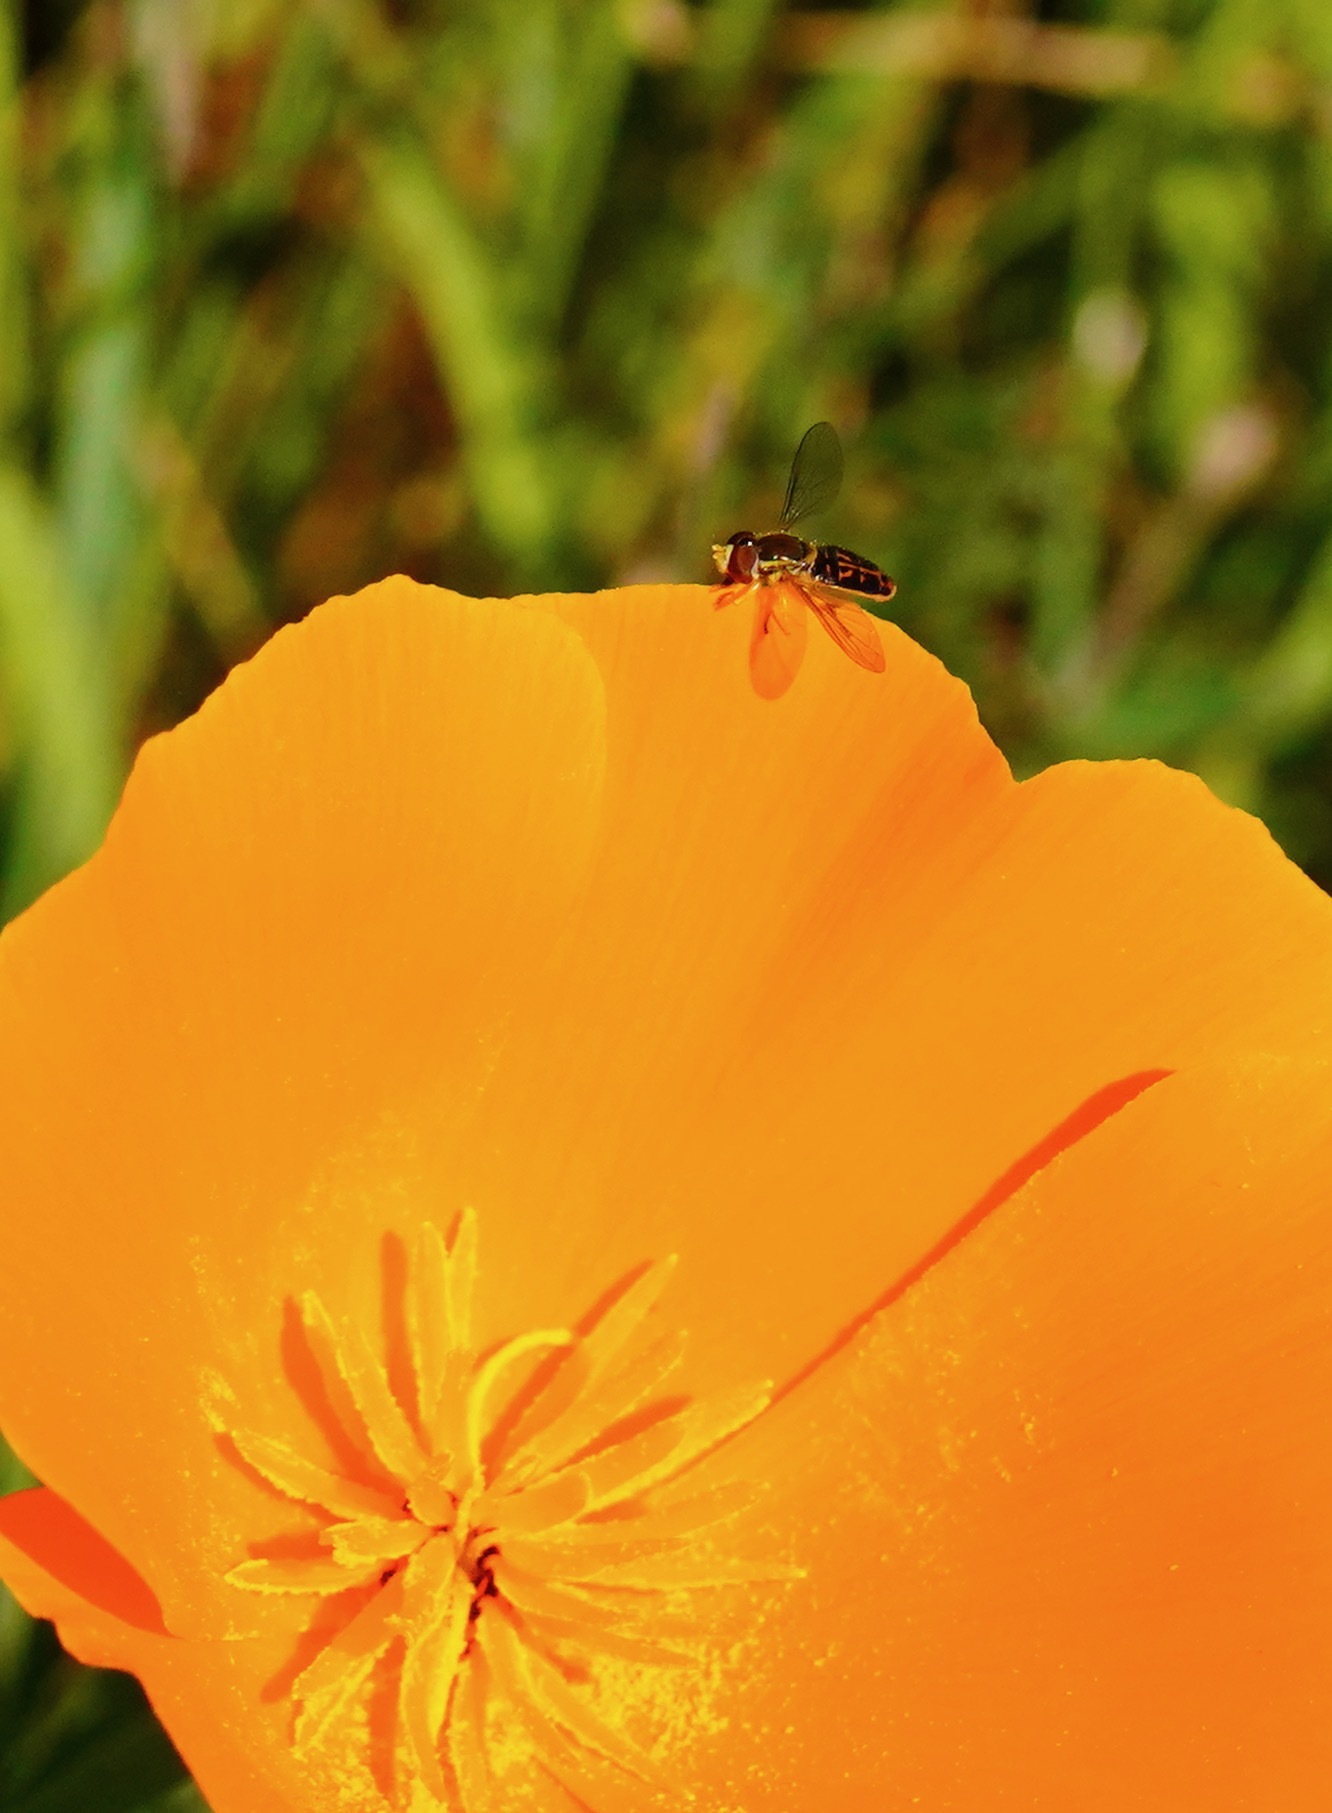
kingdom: Animalia
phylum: Arthropoda
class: Insecta
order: Diptera
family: Syrphidae
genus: Toxomerus
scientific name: Toxomerus marginatus
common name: Syrphid fly
